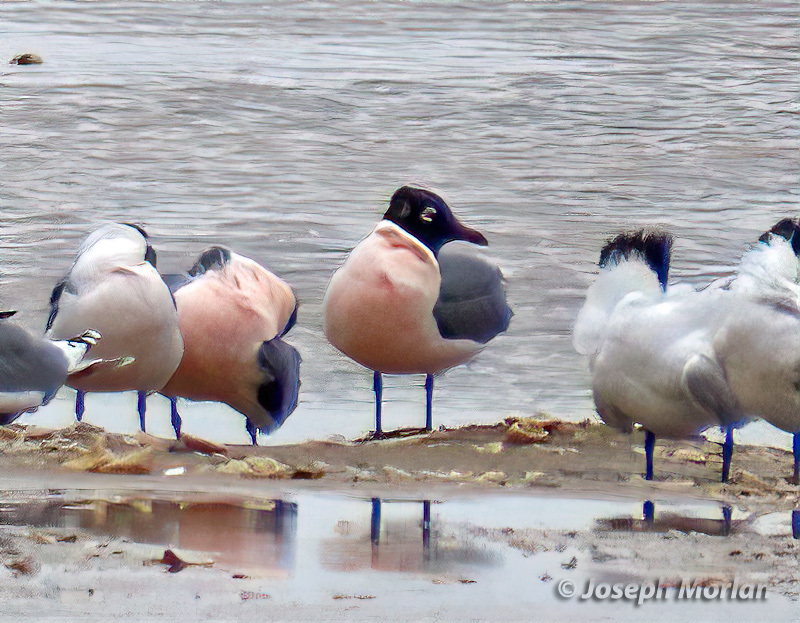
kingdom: Animalia
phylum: Chordata
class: Aves
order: Charadriiformes
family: Laridae
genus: Leucophaeus
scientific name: Leucophaeus pipixcan
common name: Franklin's gull
